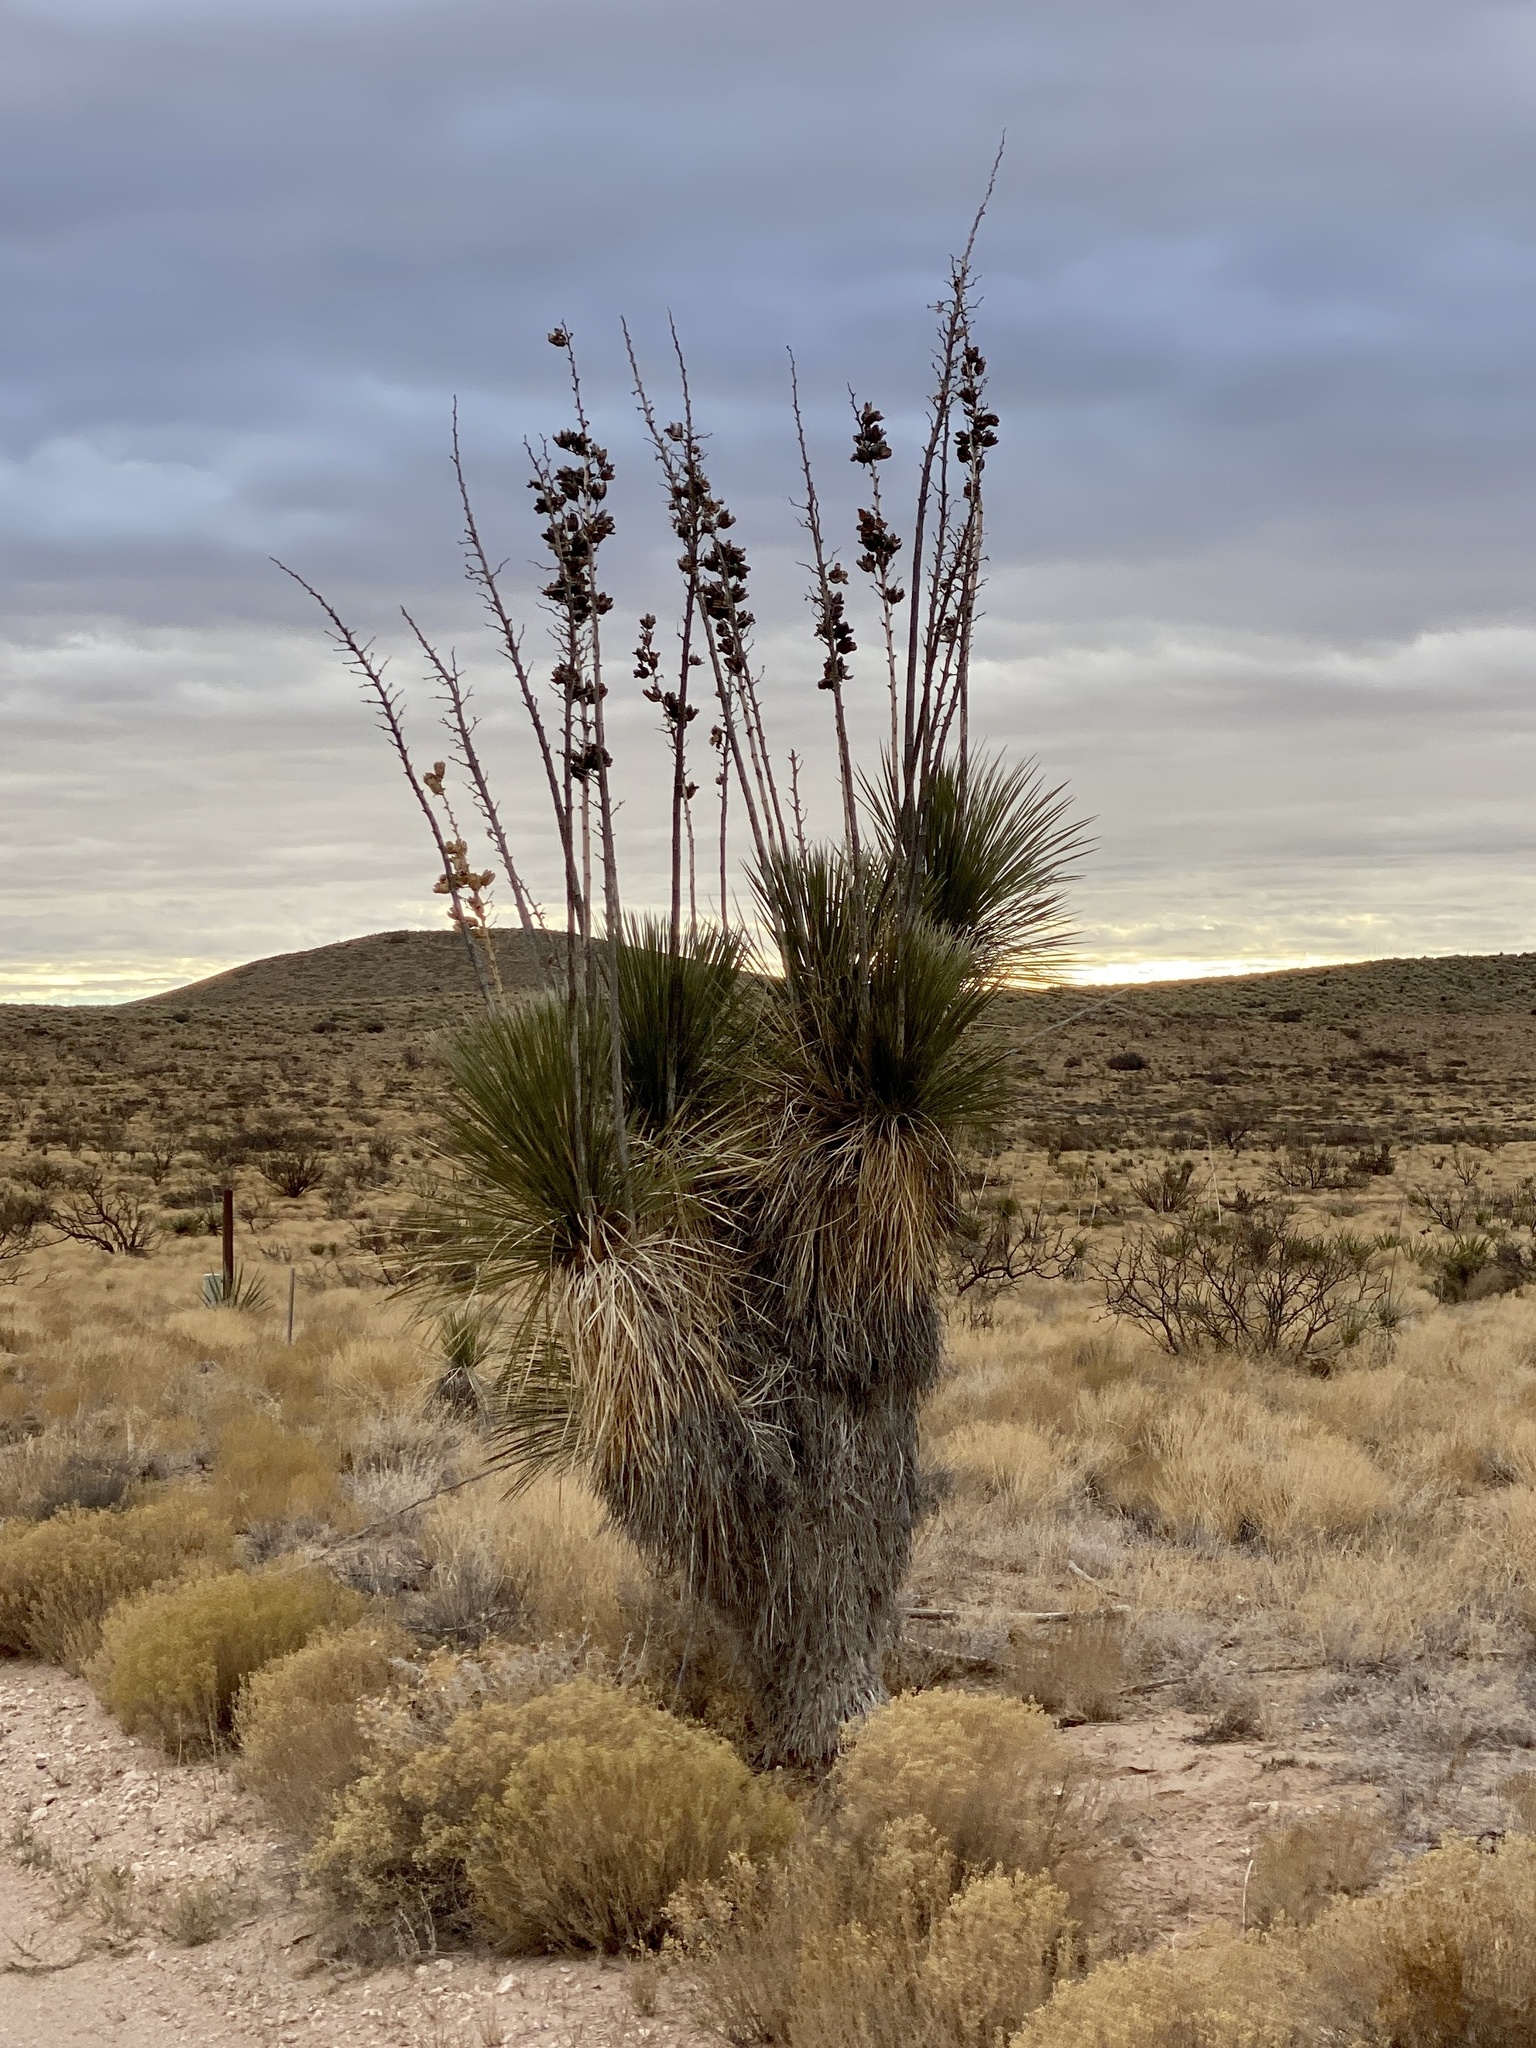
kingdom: Plantae
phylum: Tracheophyta
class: Liliopsida
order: Asparagales
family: Asparagaceae
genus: Yucca
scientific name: Yucca elata
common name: Palmella
